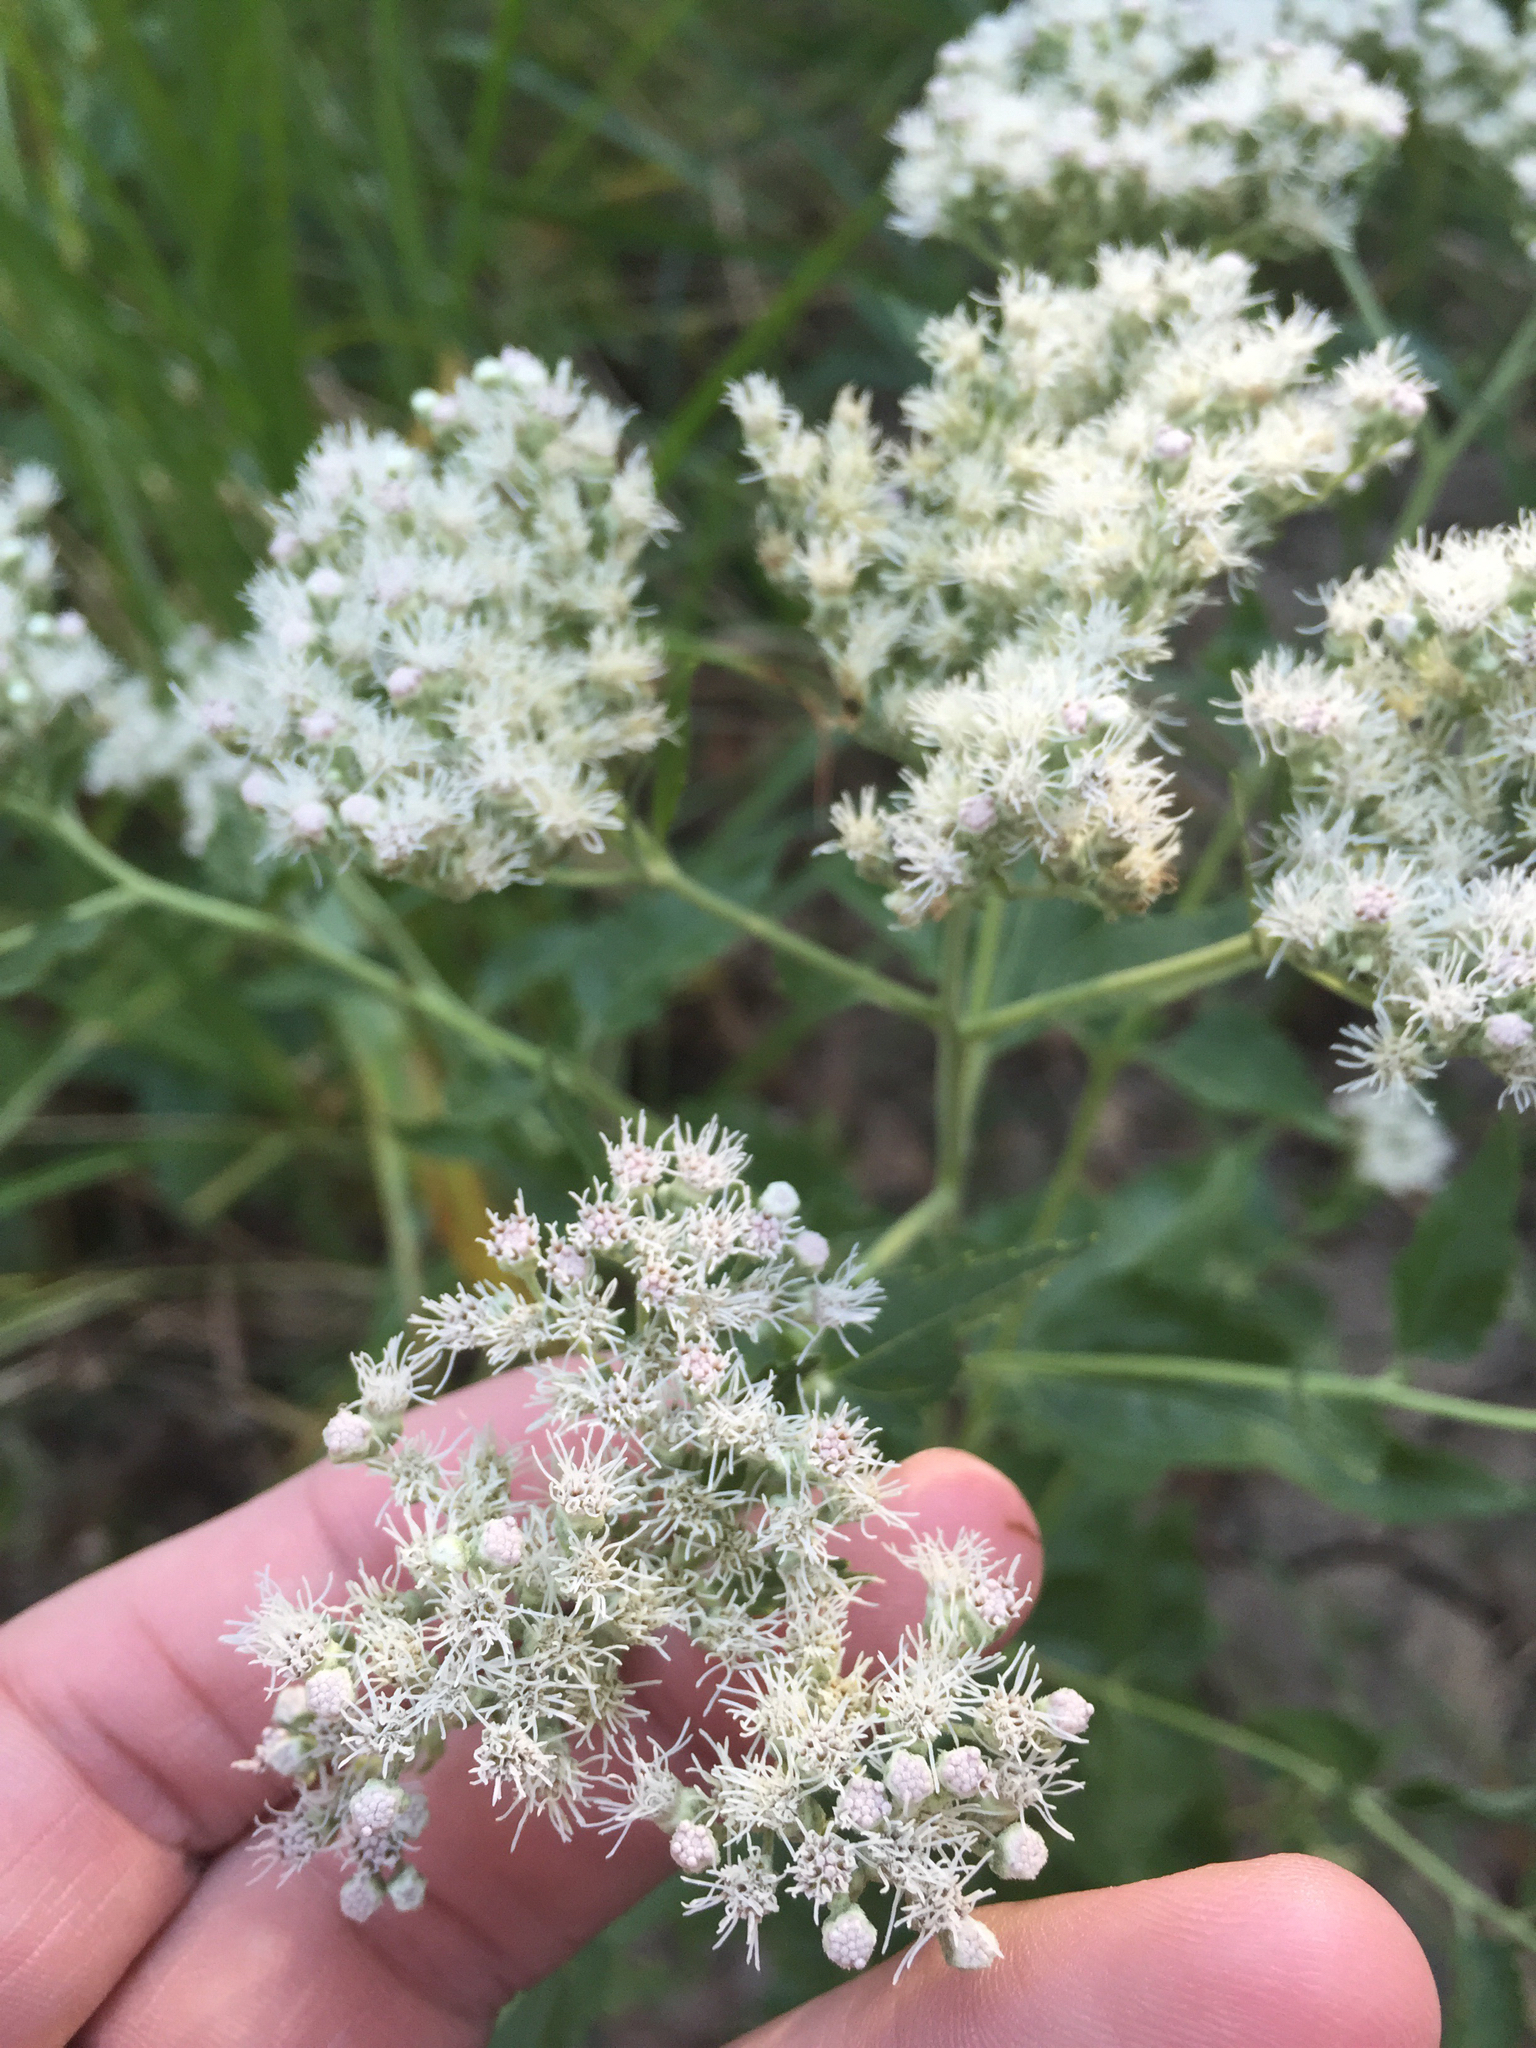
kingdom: Plantae
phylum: Tracheophyta
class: Magnoliopsida
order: Asterales
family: Asteraceae
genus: Eupatorium
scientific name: Eupatorium serotinum
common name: Late boneset
